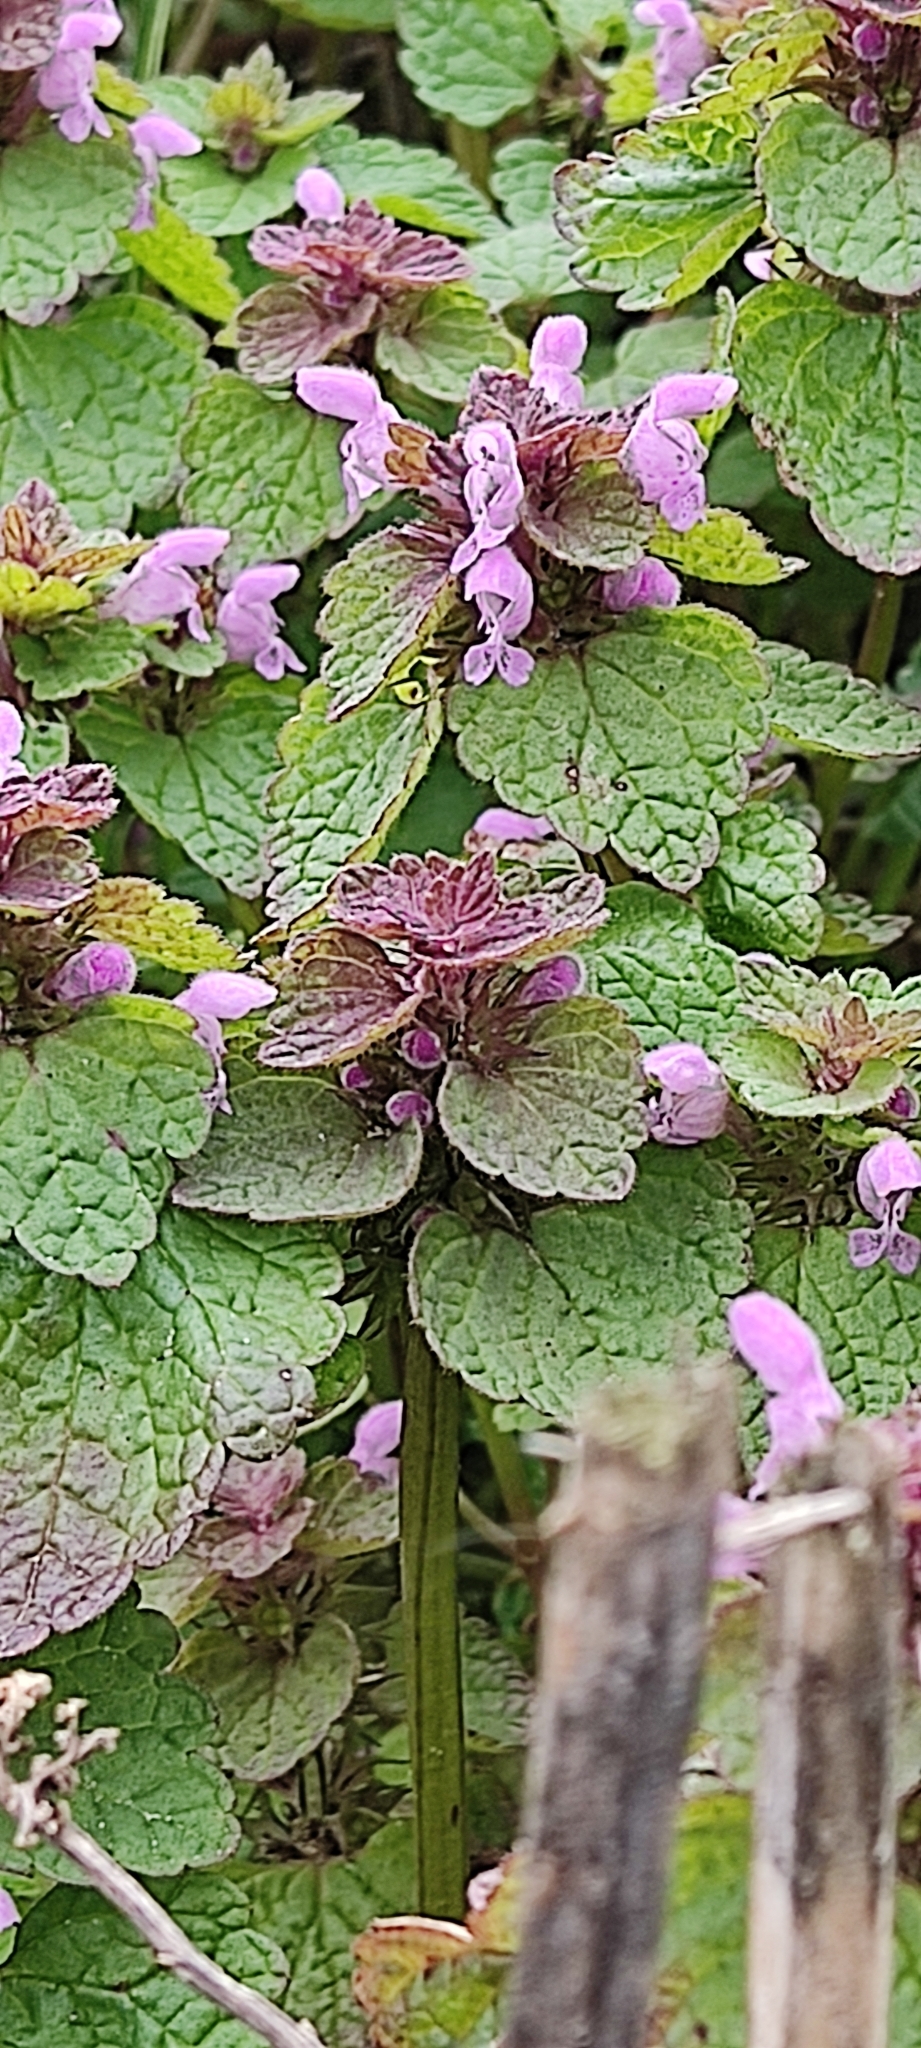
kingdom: Plantae
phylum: Tracheophyta
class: Magnoliopsida
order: Lamiales
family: Lamiaceae
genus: Lamium
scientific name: Lamium purpureum
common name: Red dead-nettle
